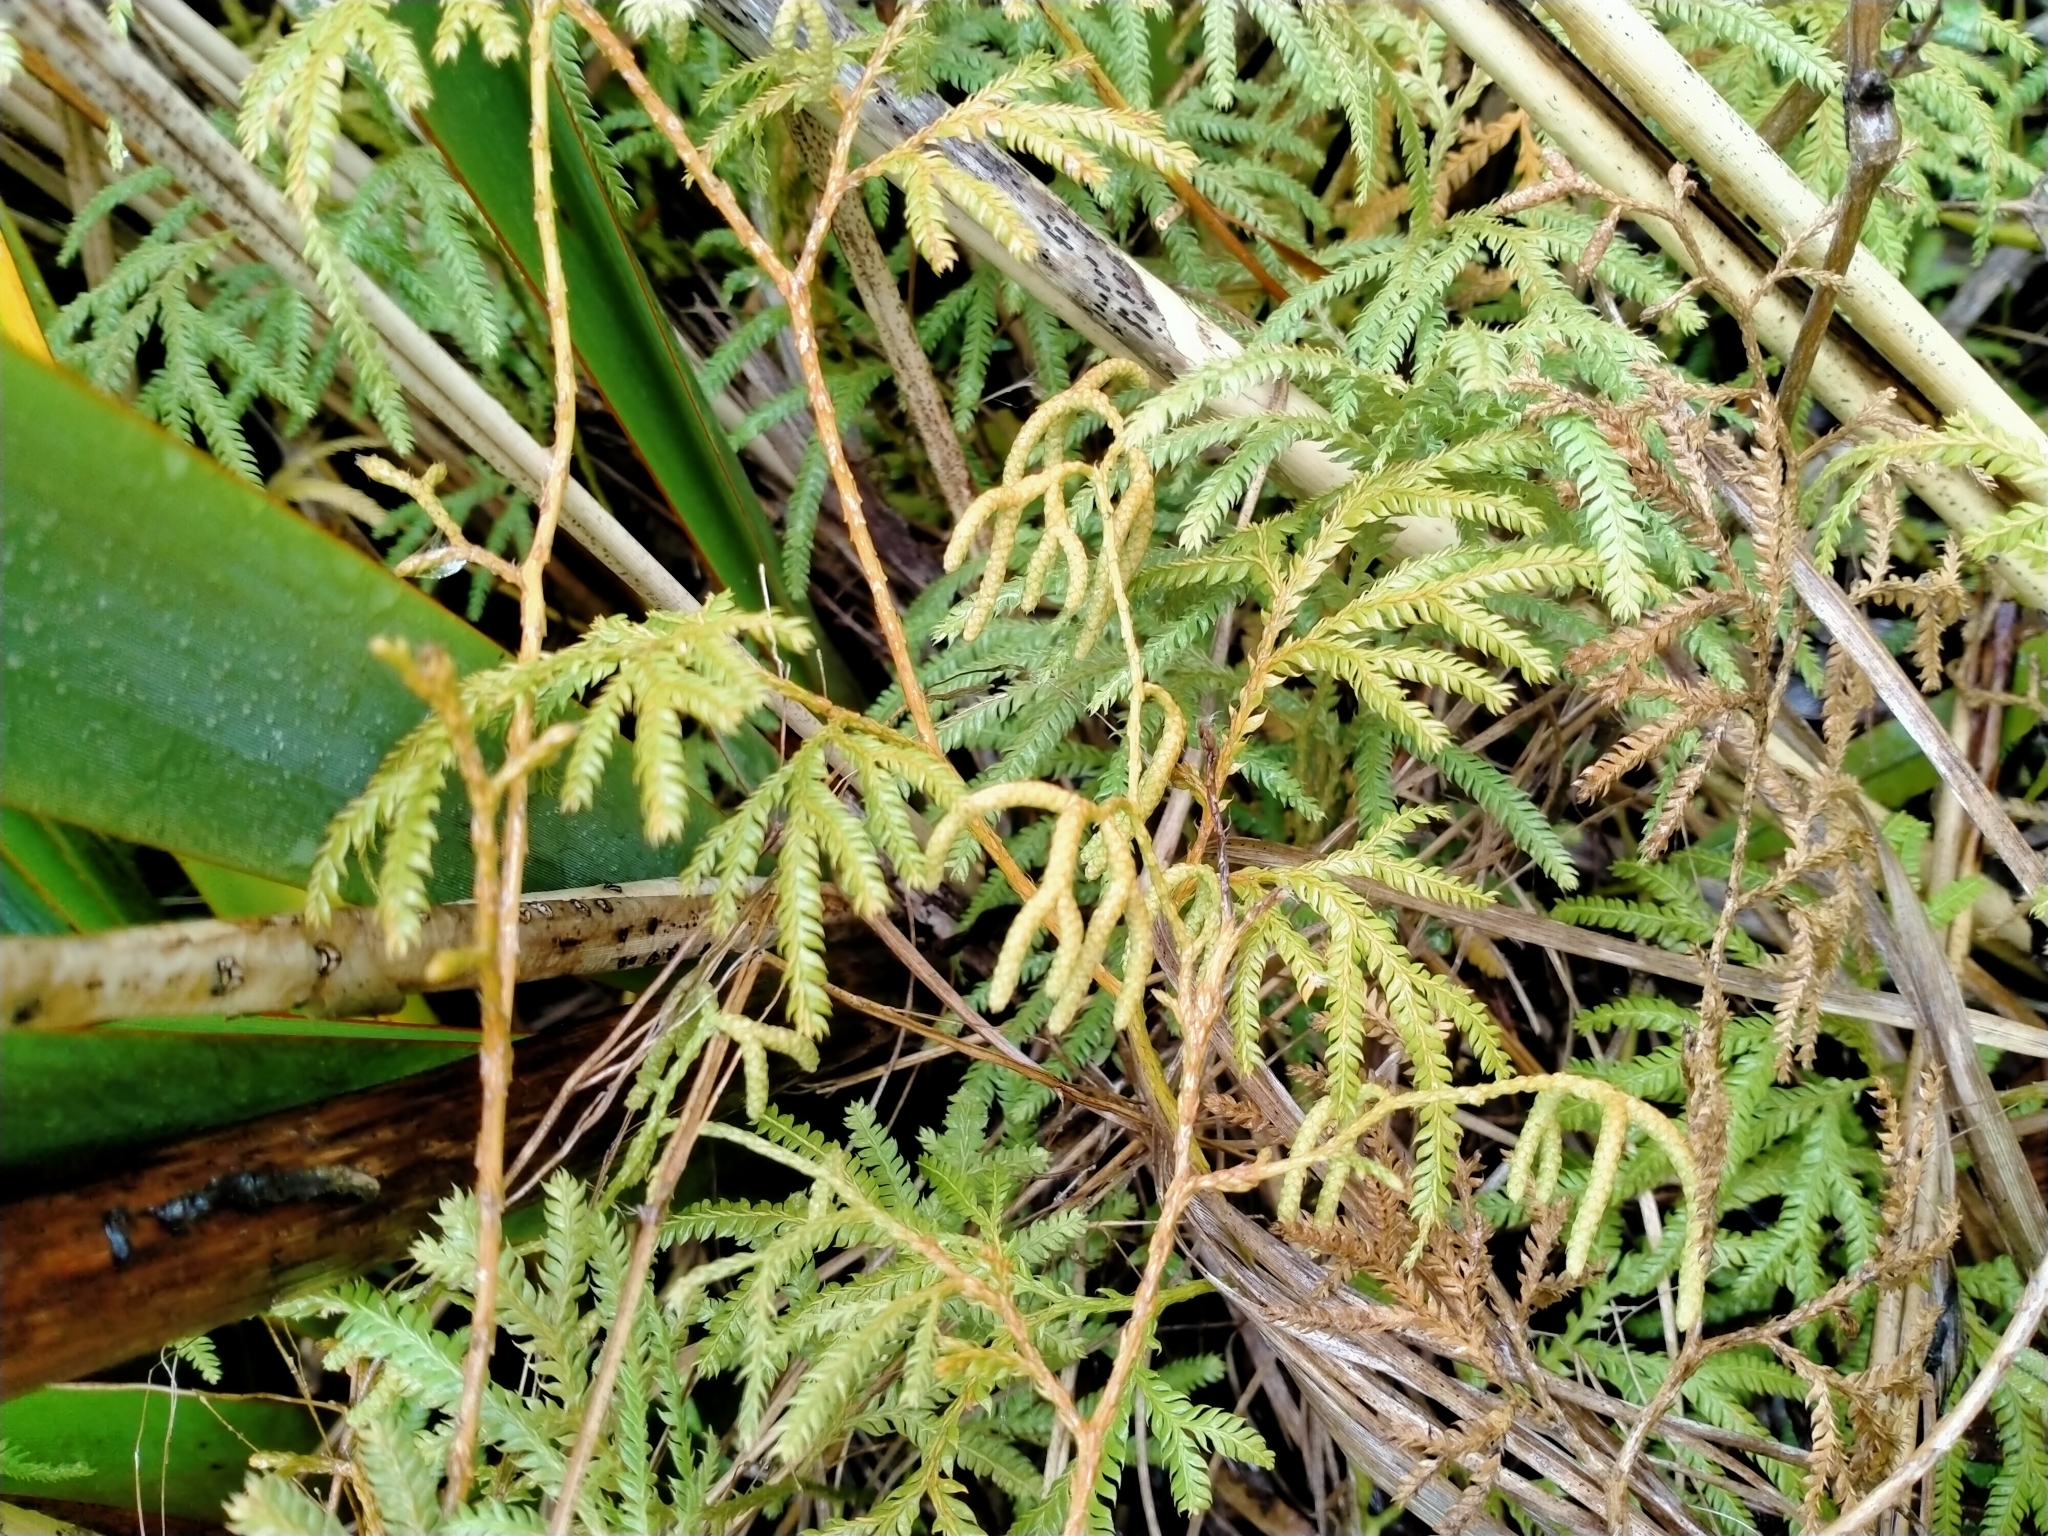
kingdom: Plantae
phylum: Tracheophyta
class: Lycopodiopsida
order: Lycopodiales
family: Lycopodiaceae
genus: Lycopodium
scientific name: Lycopodium volubile
